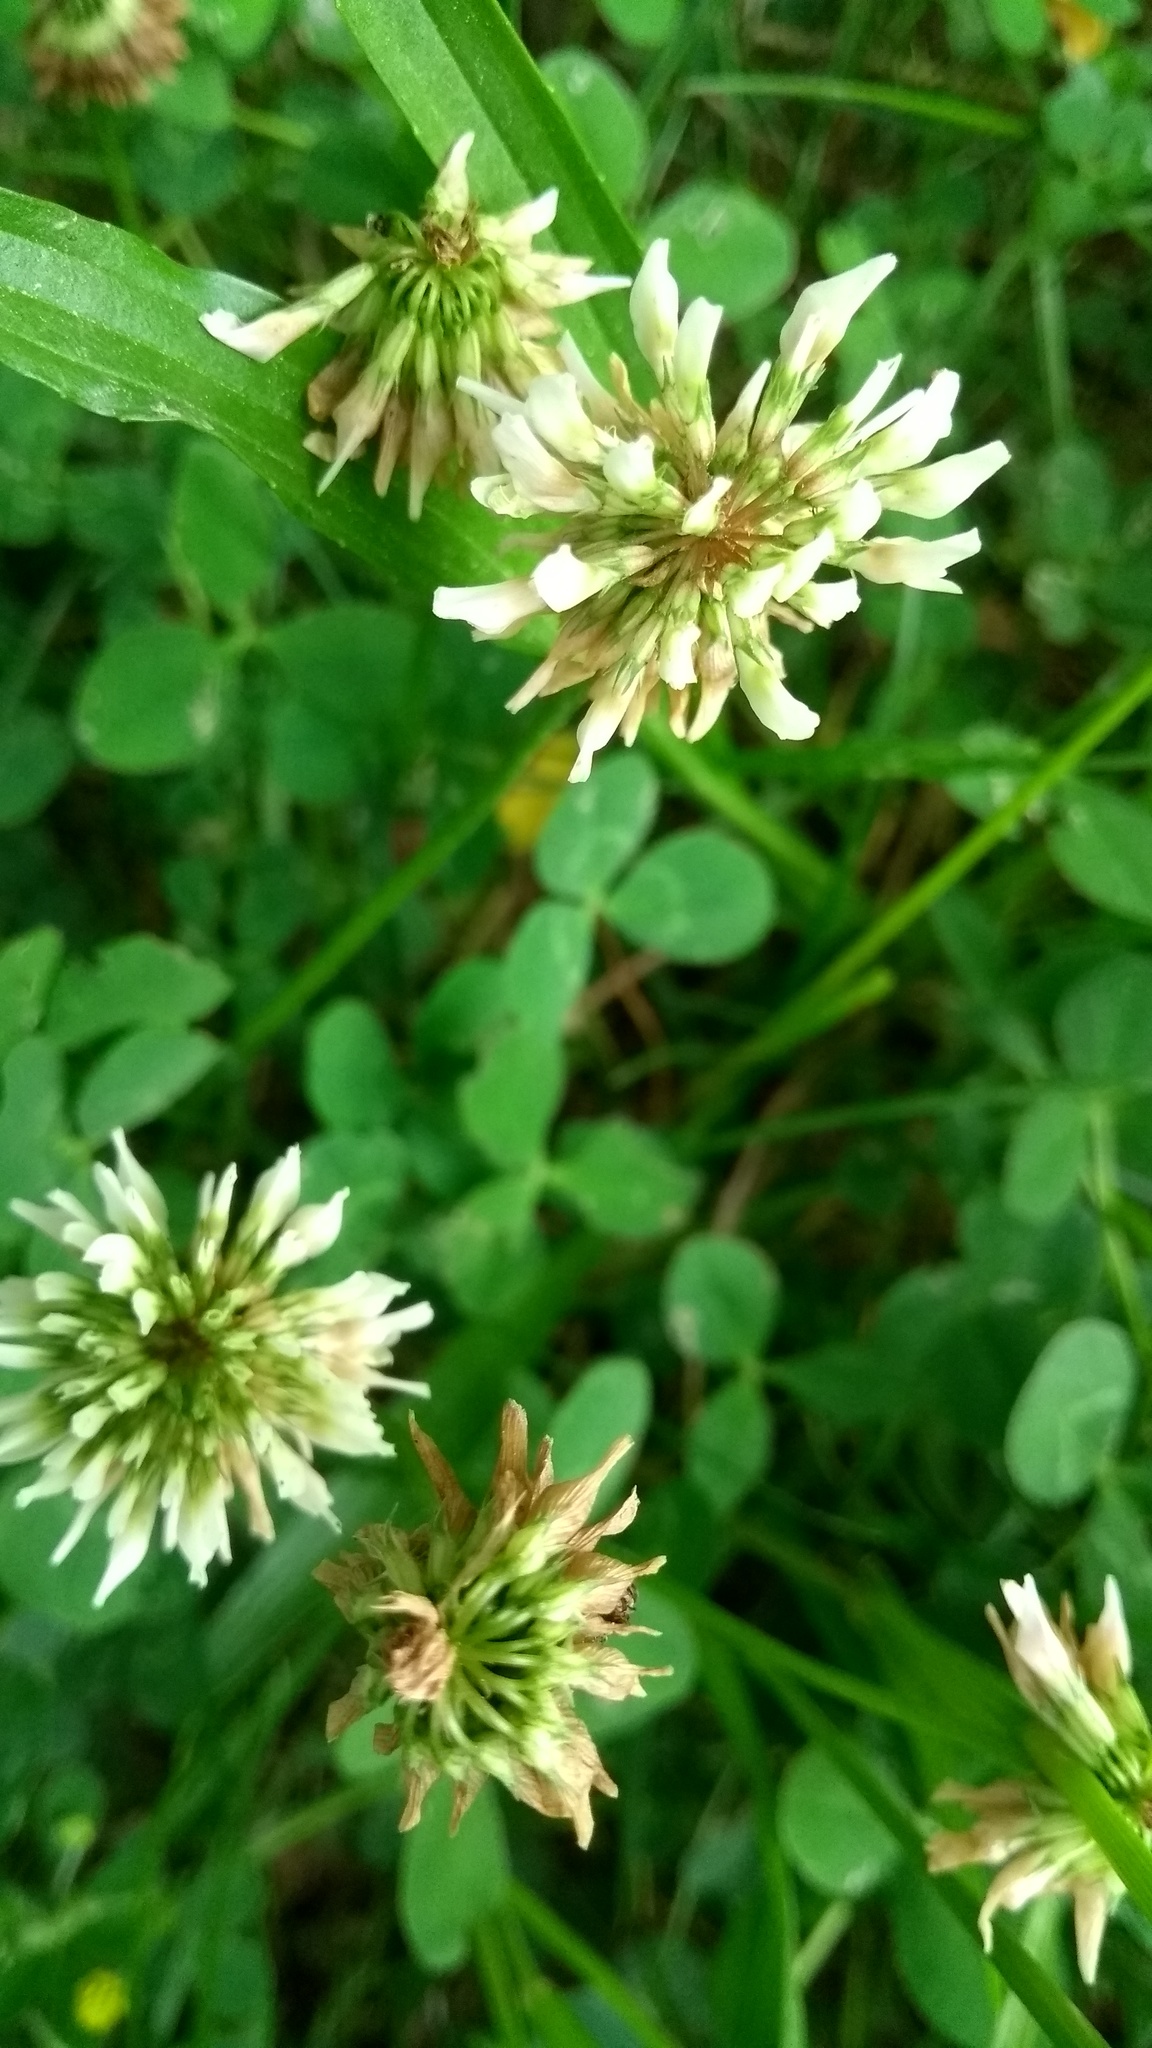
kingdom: Plantae
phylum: Tracheophyta
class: Magnoliopsida
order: Fabales
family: Fabaceae
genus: Trifolium
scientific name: Trifolium repens
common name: White clover
